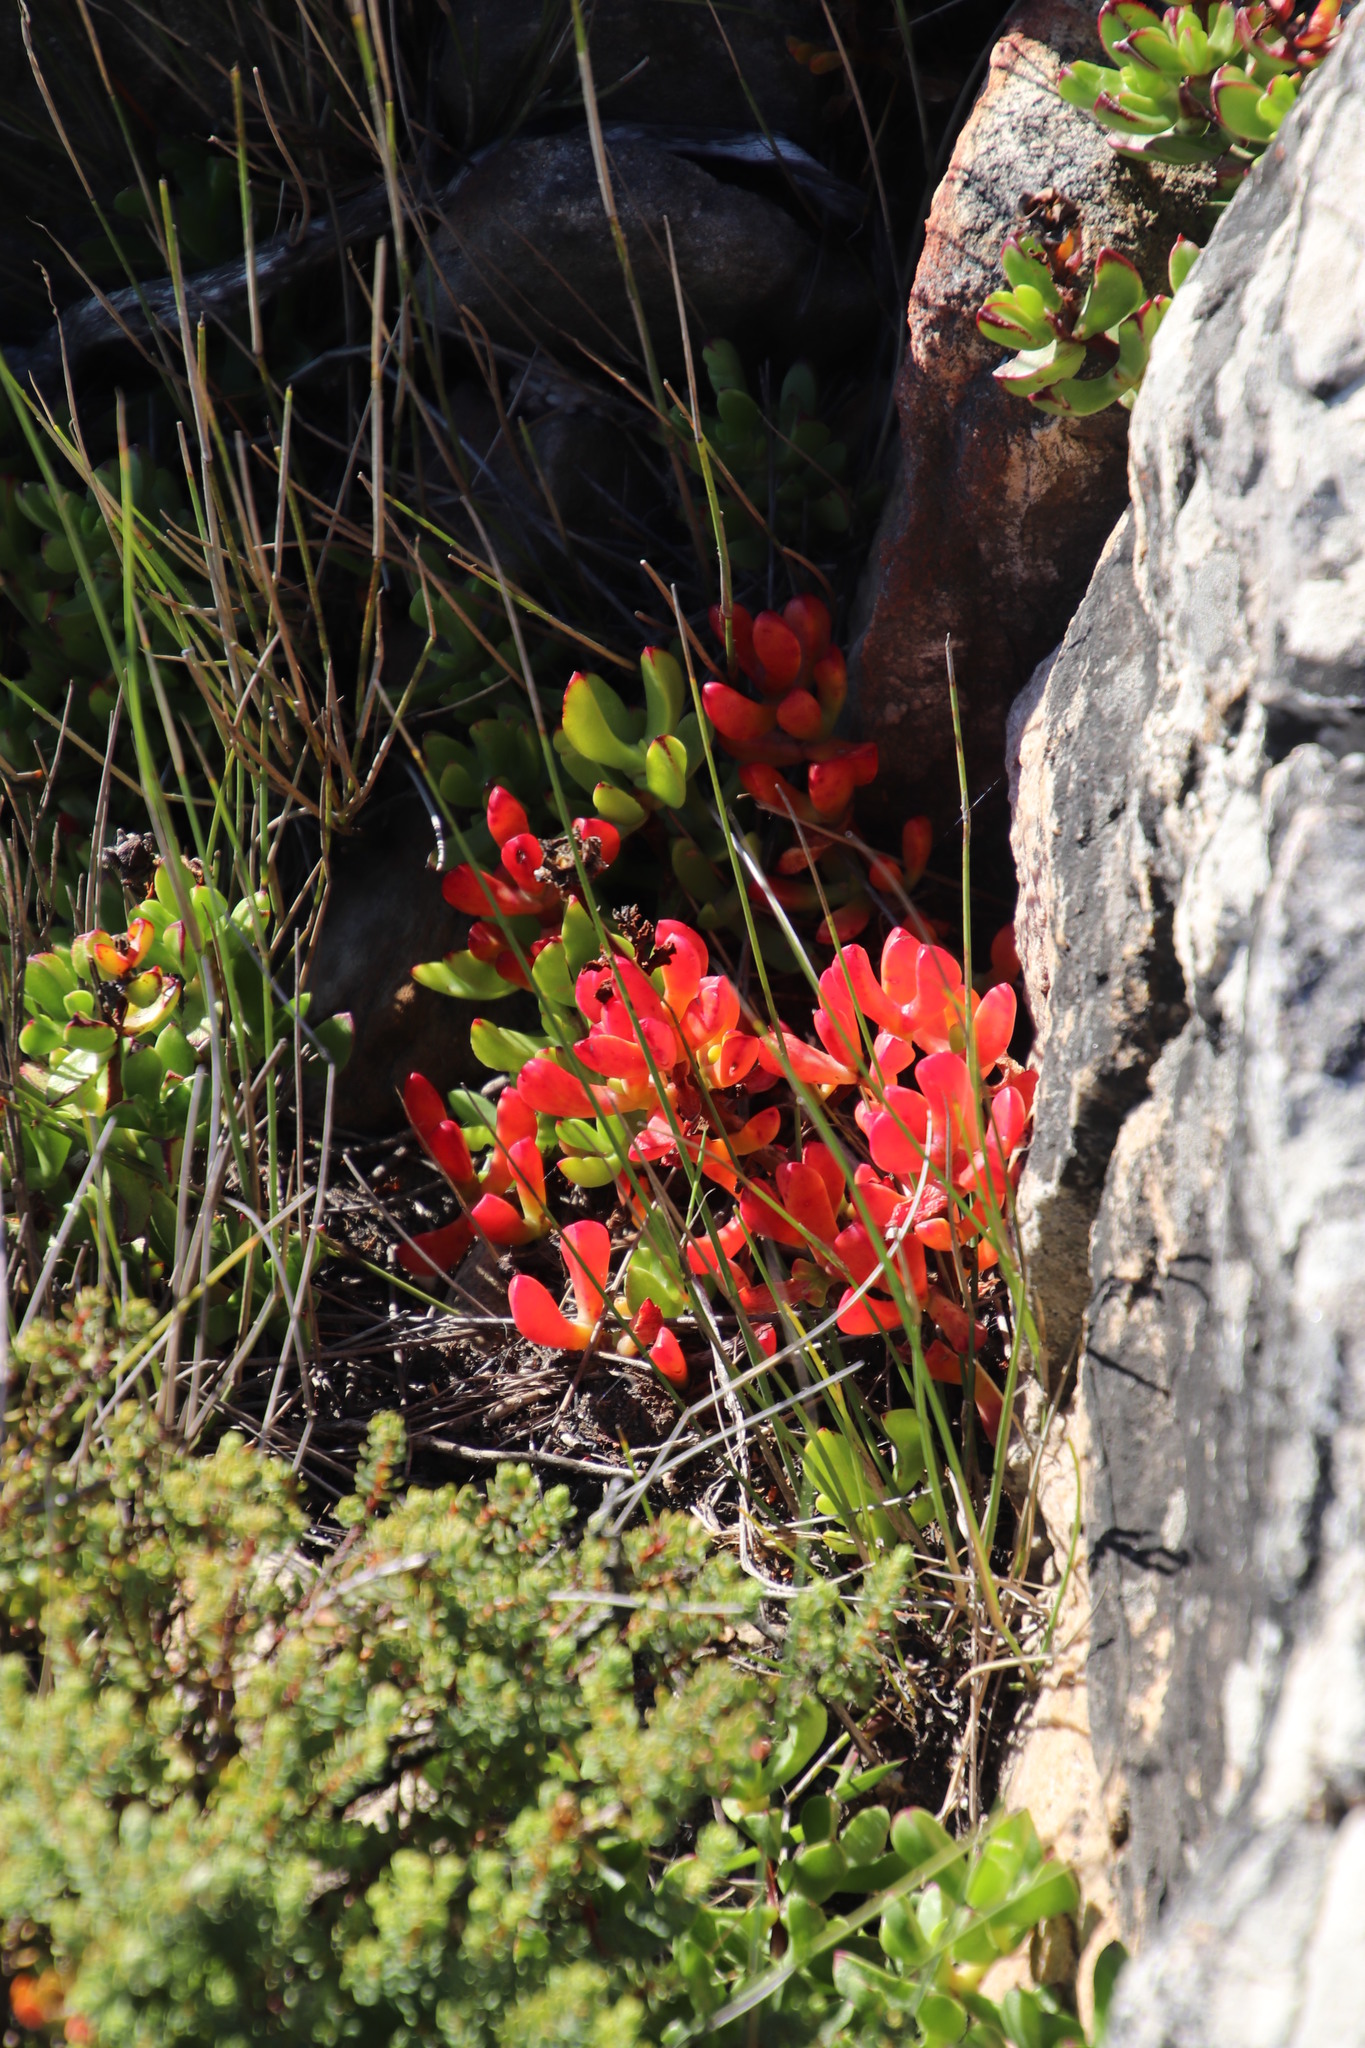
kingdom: Plantae
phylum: Tracheophyta
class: Magnoliopsida
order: Caryophyllales
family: Aizoaceae
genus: Erepsia
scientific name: Erepsia inclaudens
